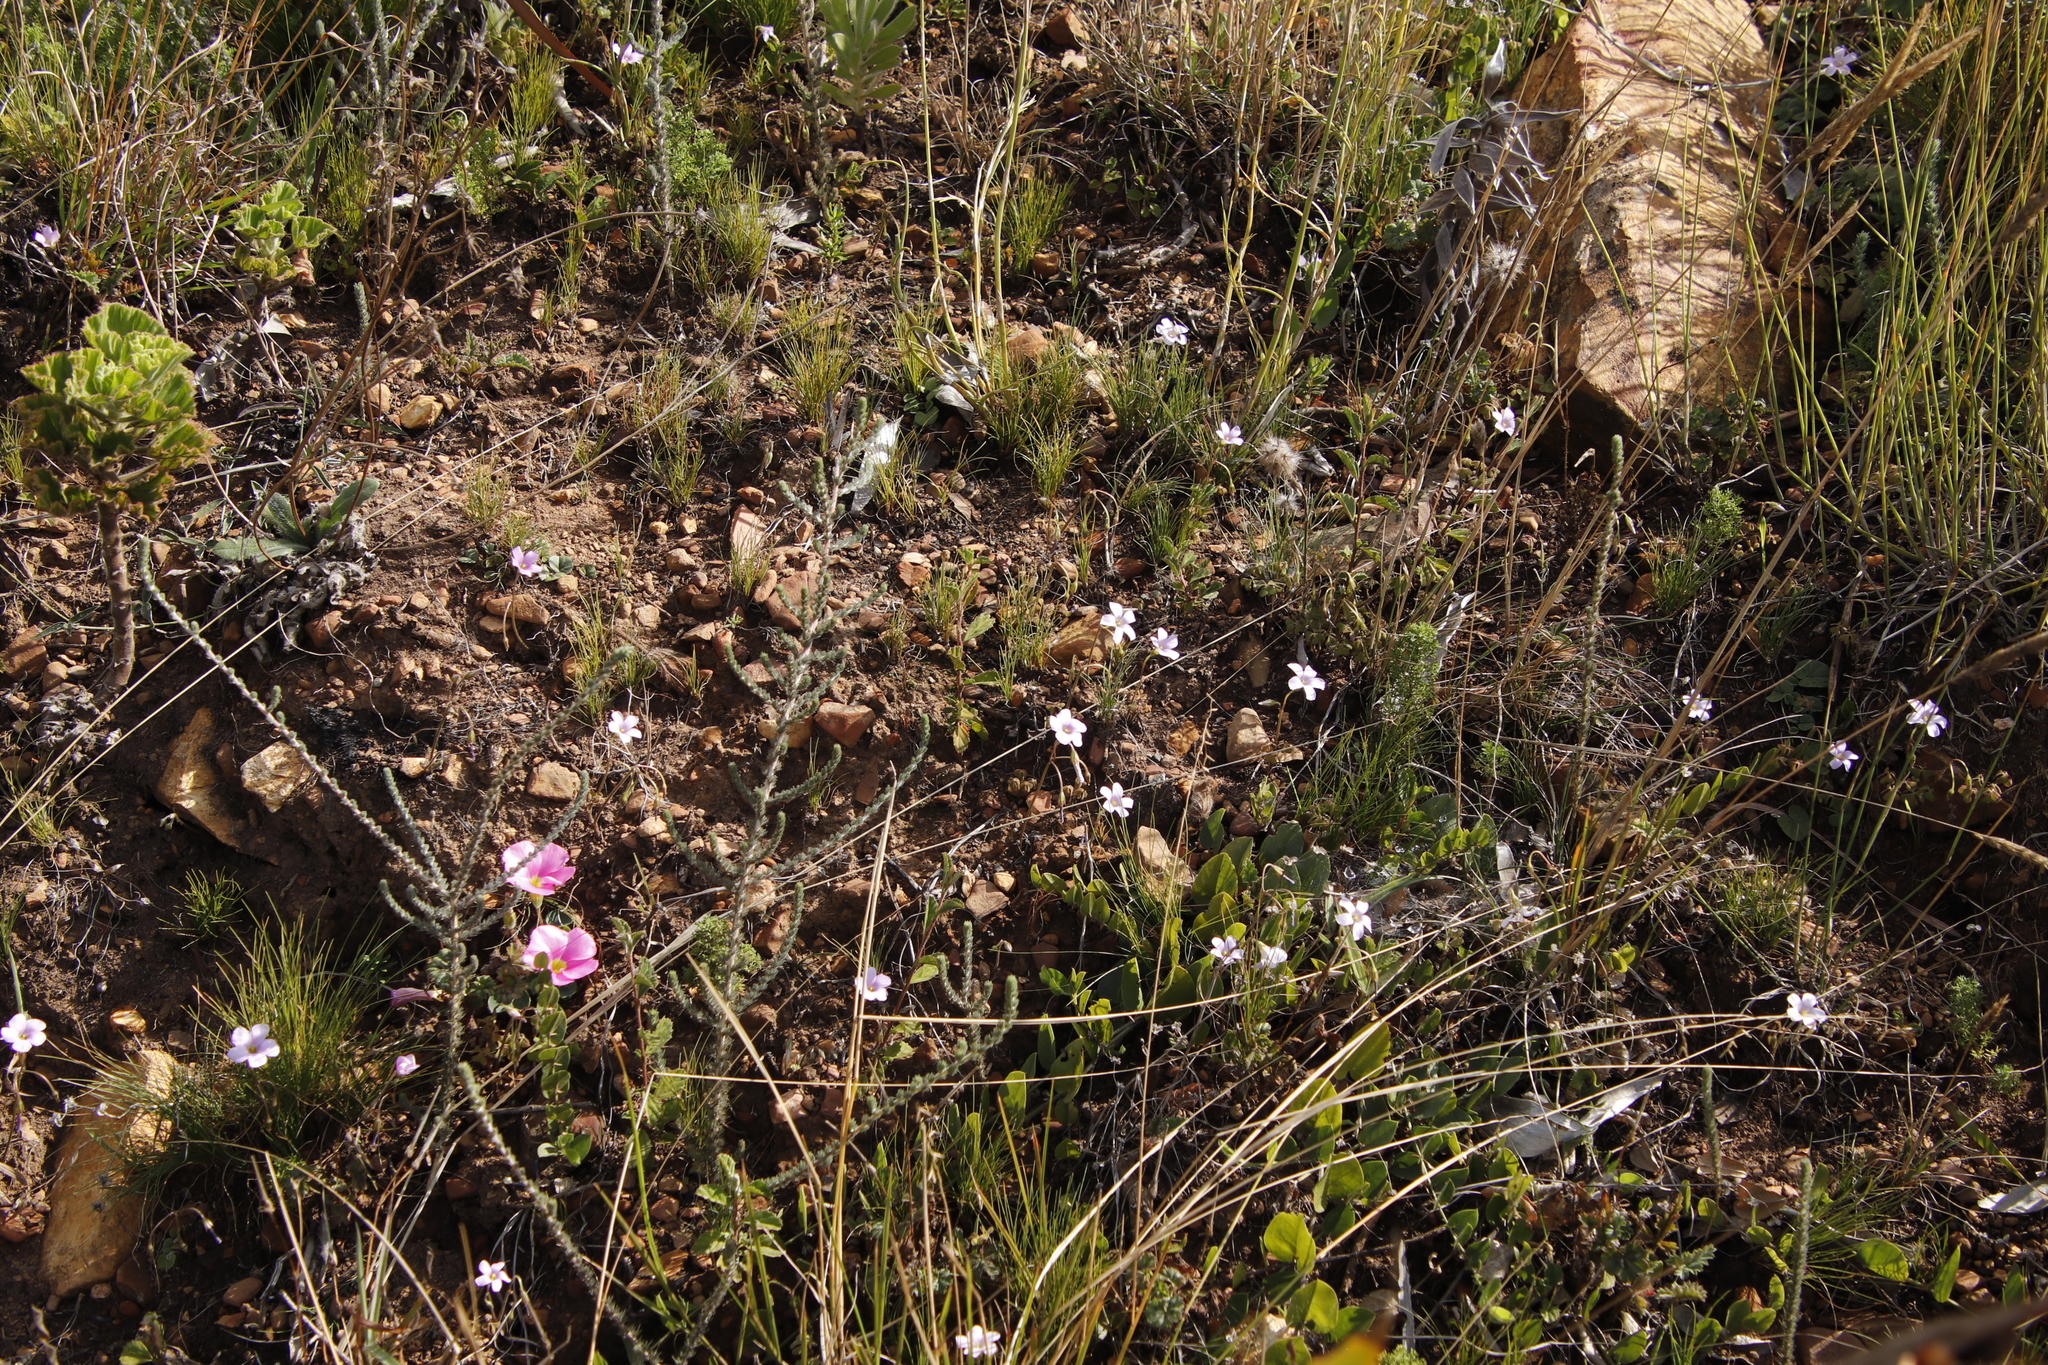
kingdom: Plantae
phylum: Tracheophyta
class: Magnoliopsida
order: Oxalidales
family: Oxalidaceae
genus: Oxalis
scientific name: Oxalis
